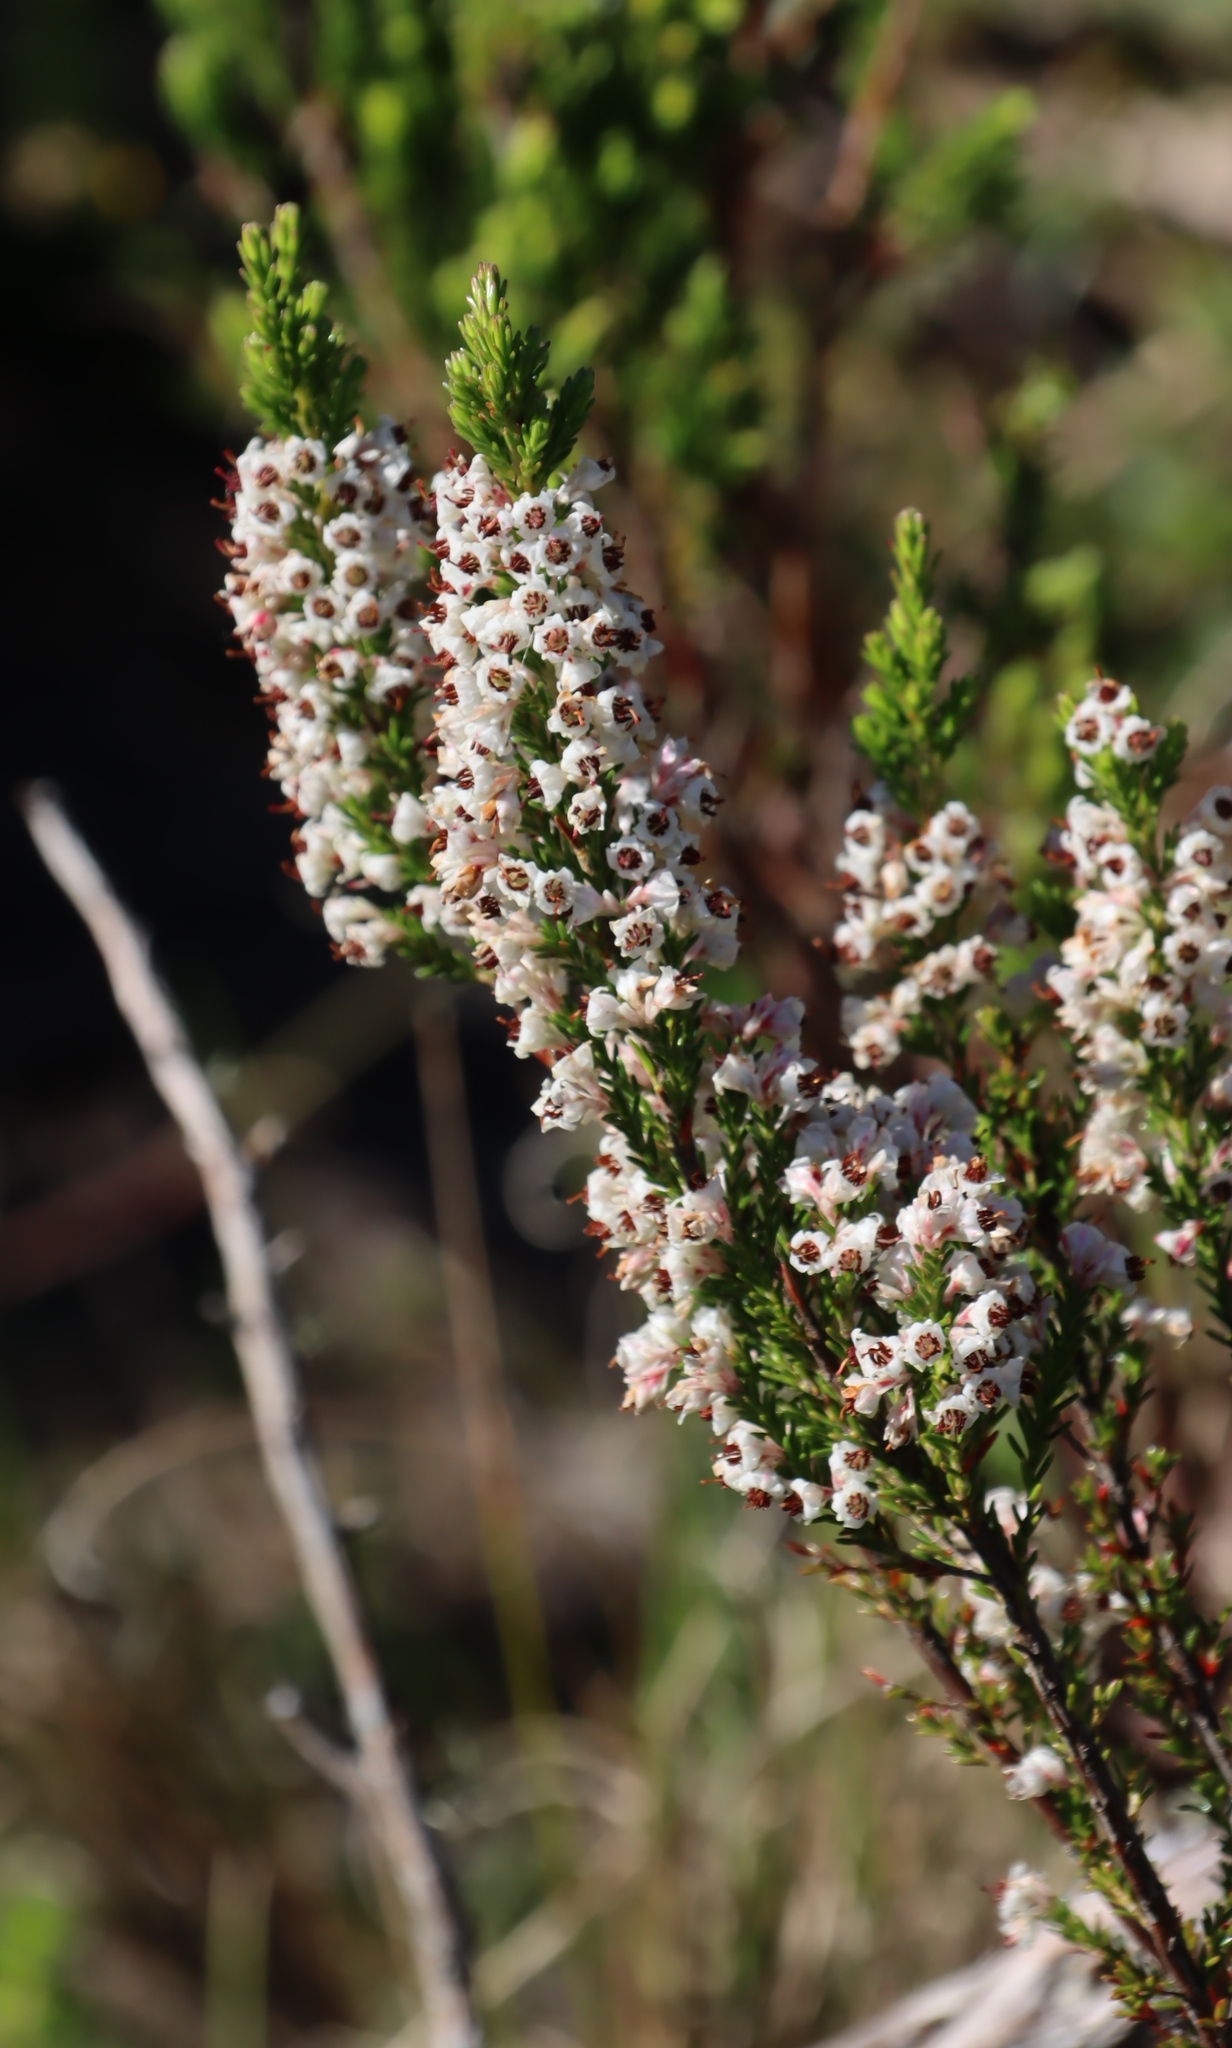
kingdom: Plantae
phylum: Tracheophyta
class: Magnoliopsida
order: Ericales
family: Ericaceae
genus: Erica
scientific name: Erica calycina
